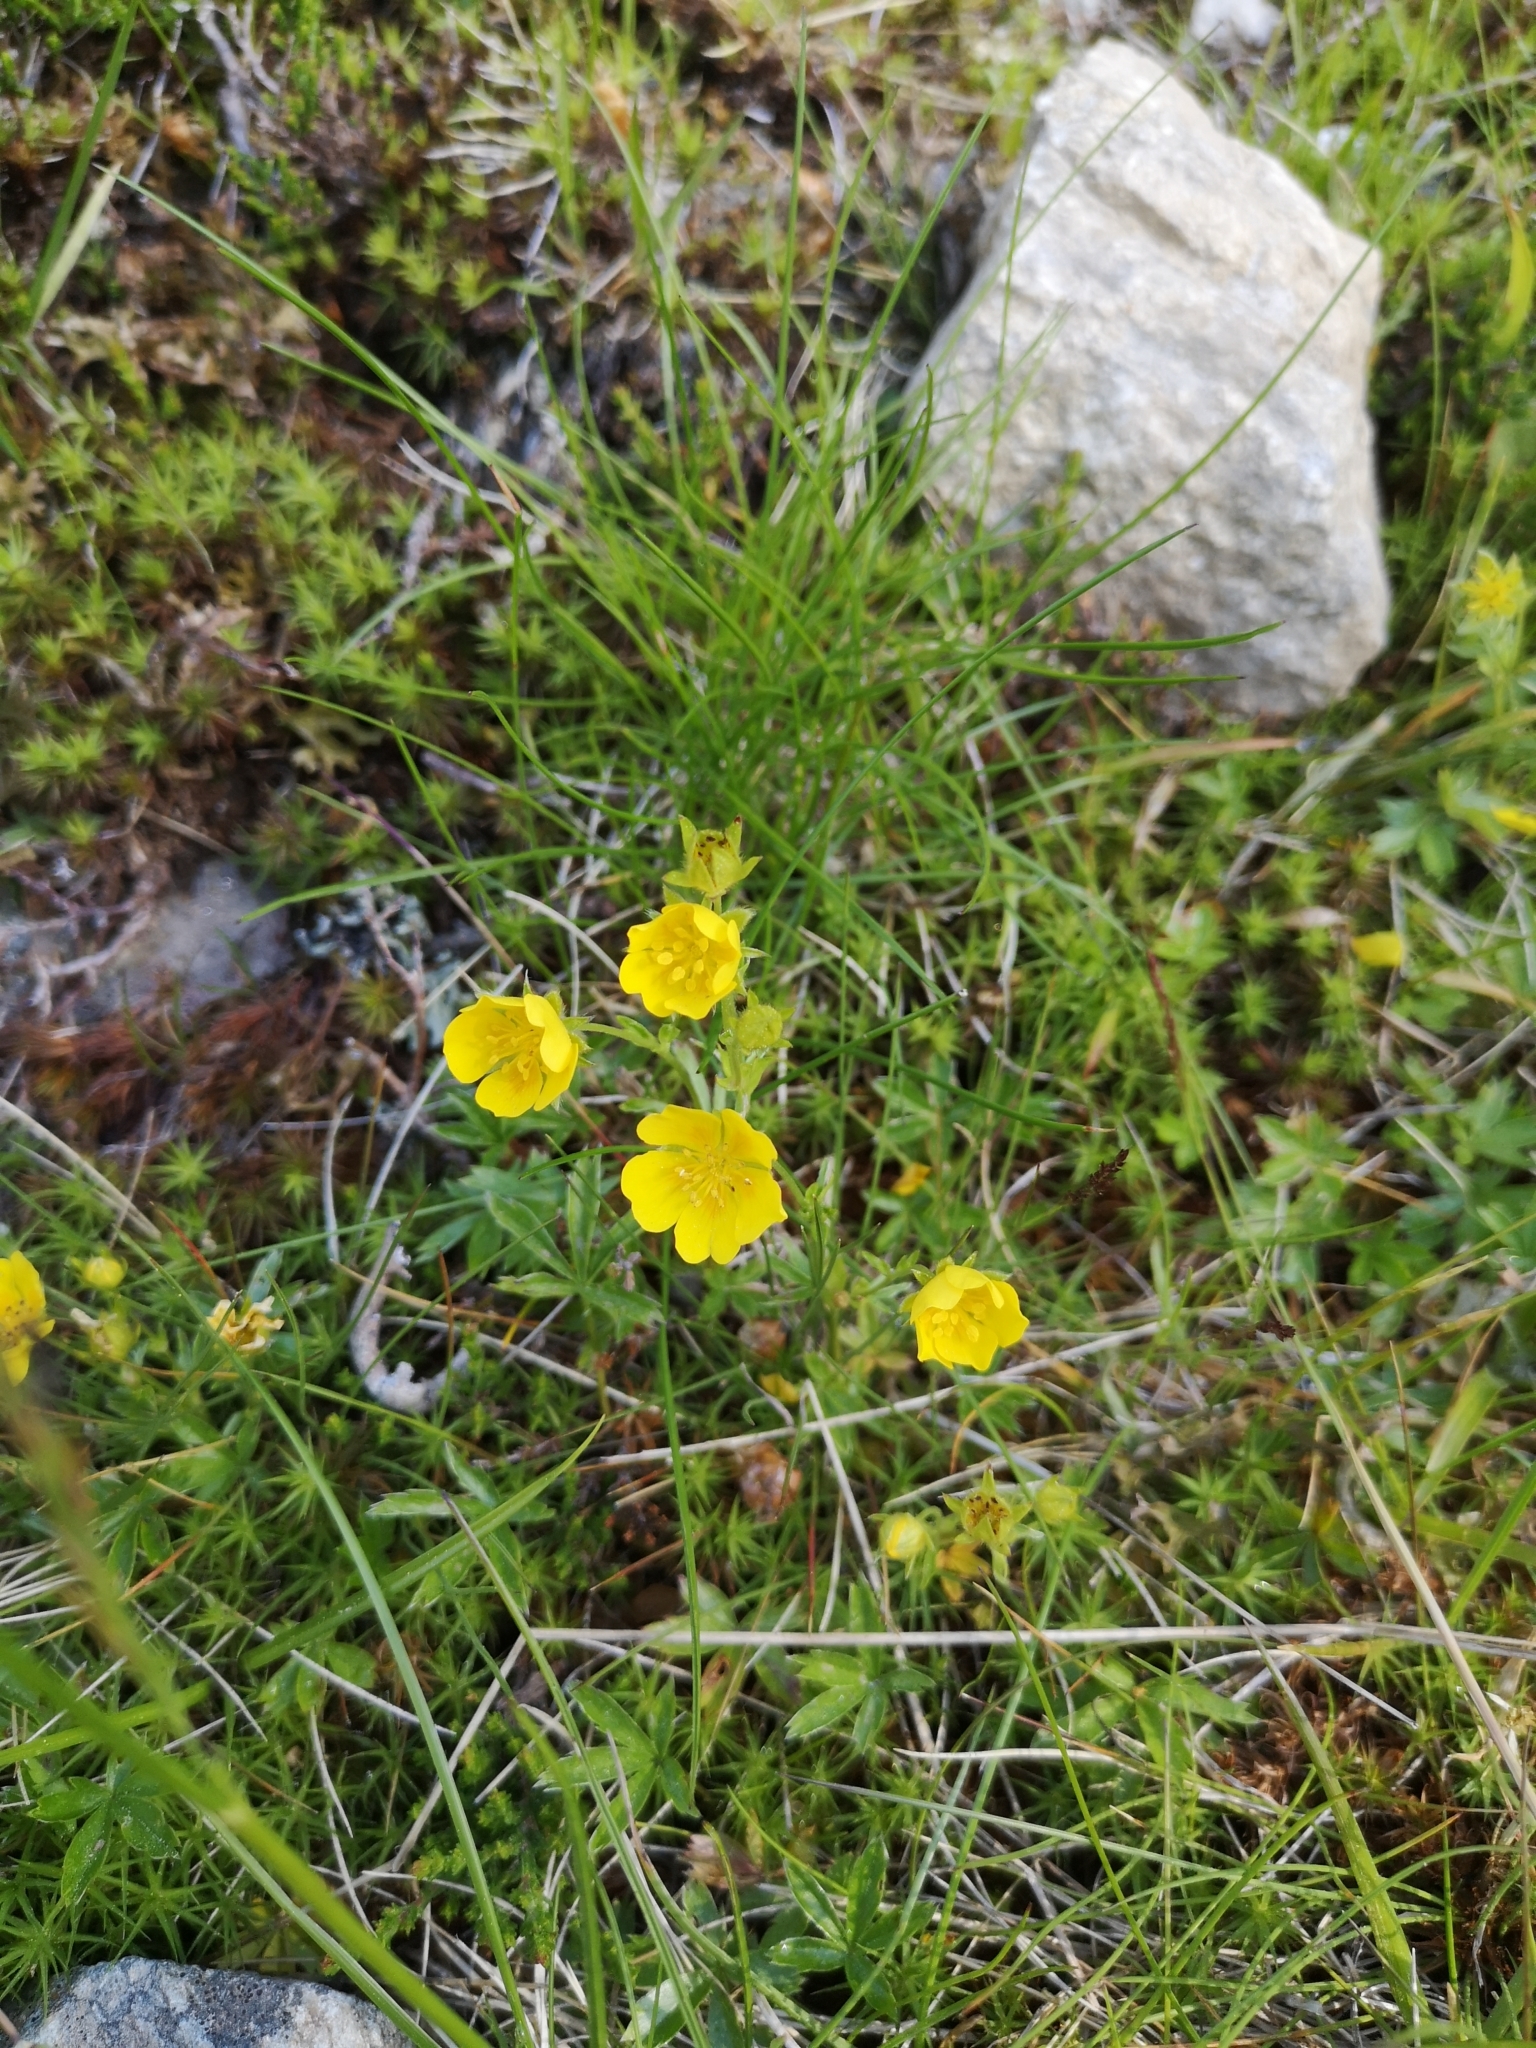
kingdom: Plantae
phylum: Tracheophyta
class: Magnoliopsida
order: Rosales
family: Rosaceae
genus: Potentilla
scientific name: Potentilla aurea
